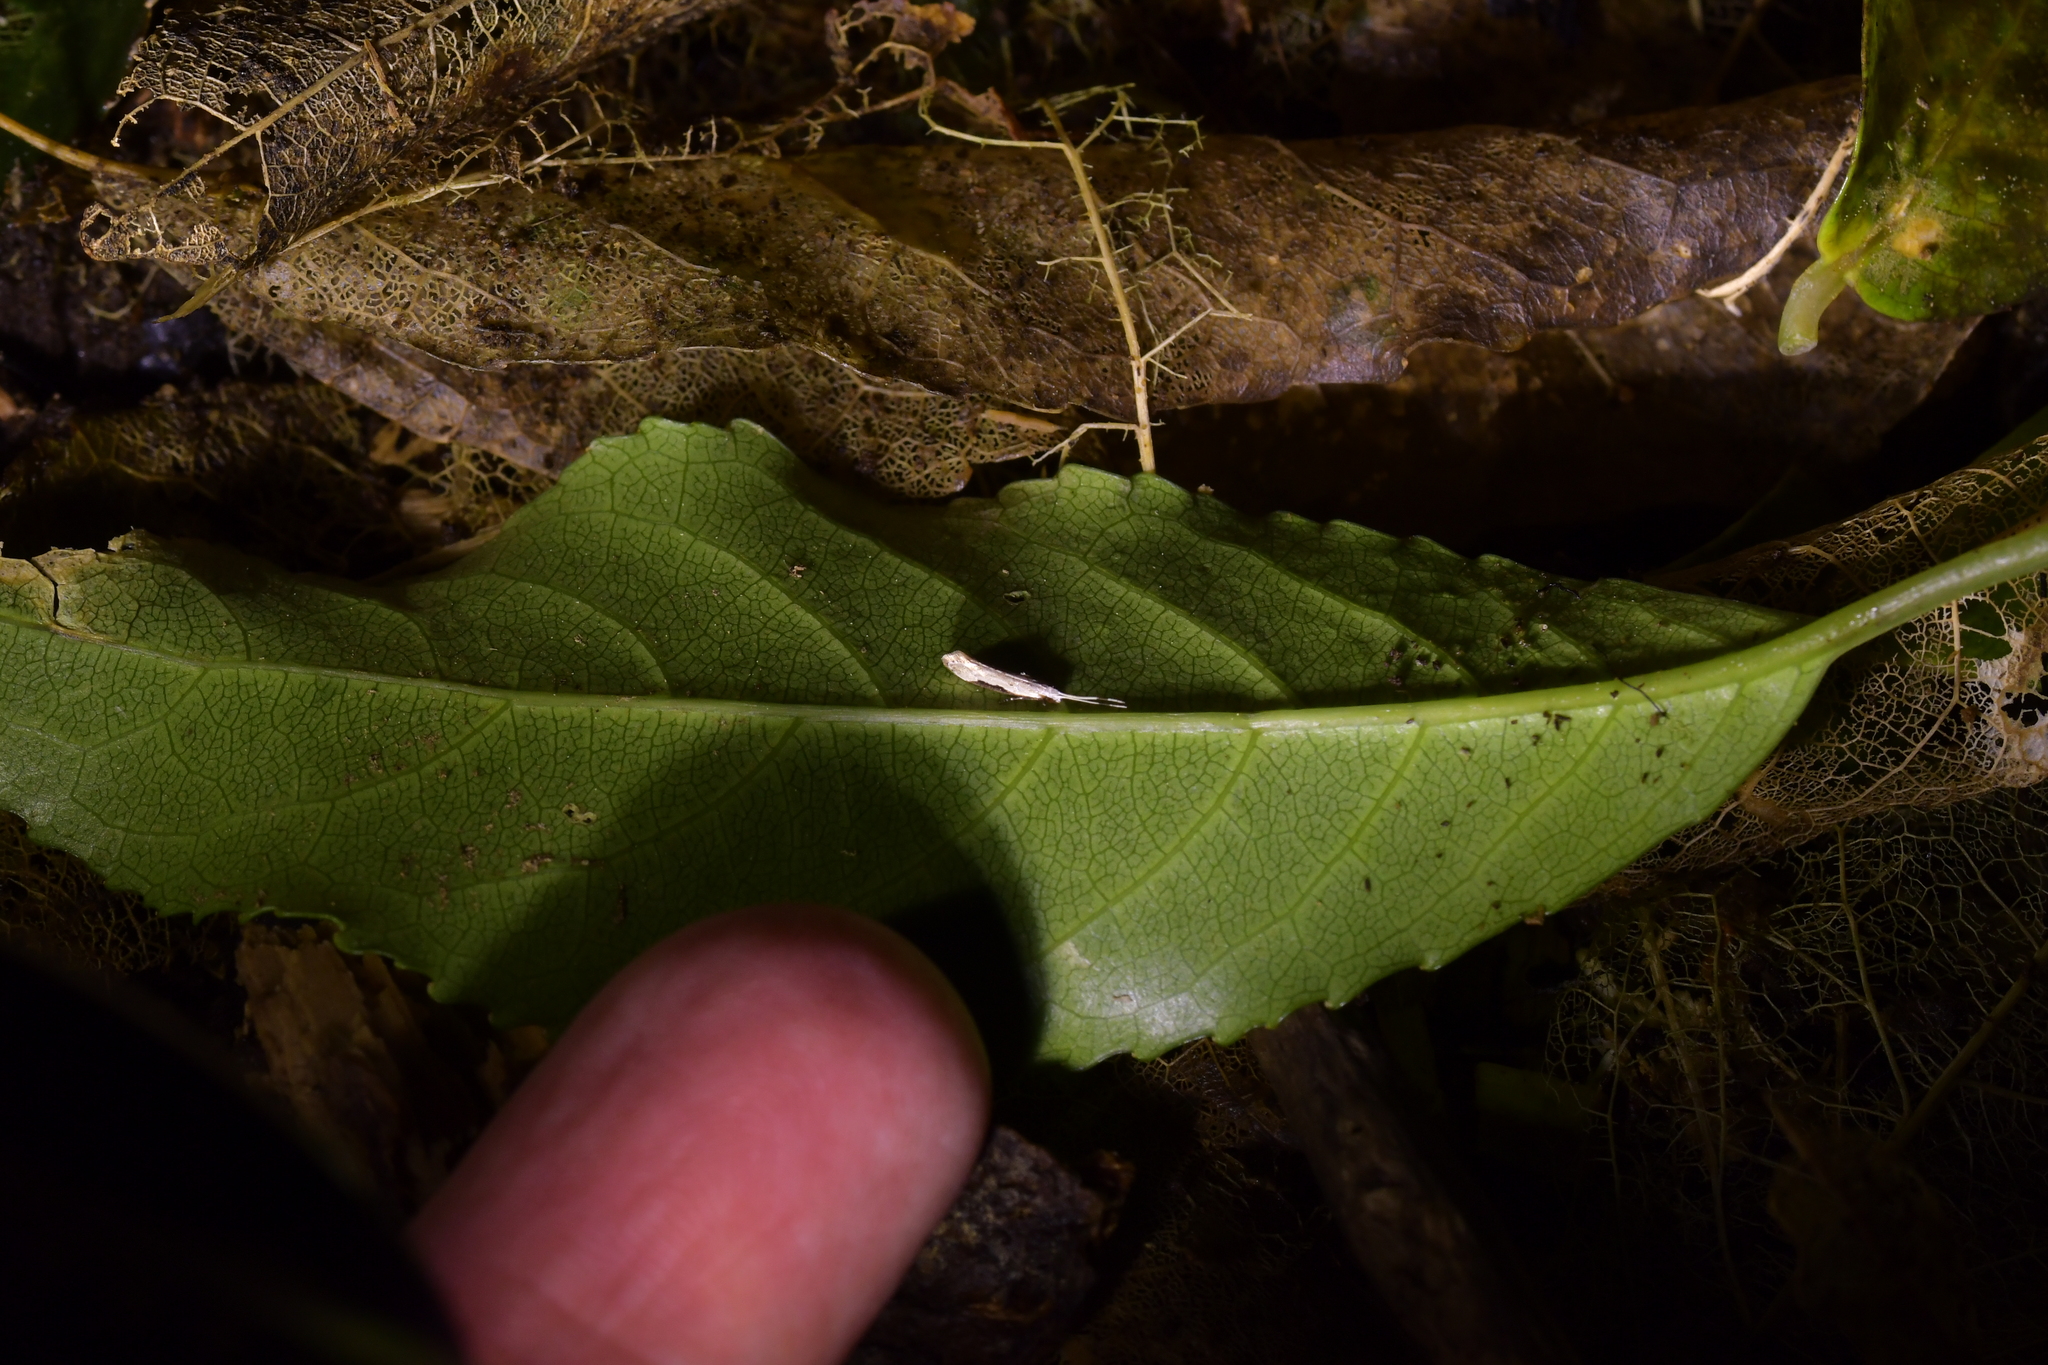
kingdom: Animalia
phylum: Arthropoda
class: Insecta
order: Lepidoptera
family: Tineidae
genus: Sagephora
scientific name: Sagephora phortegella
